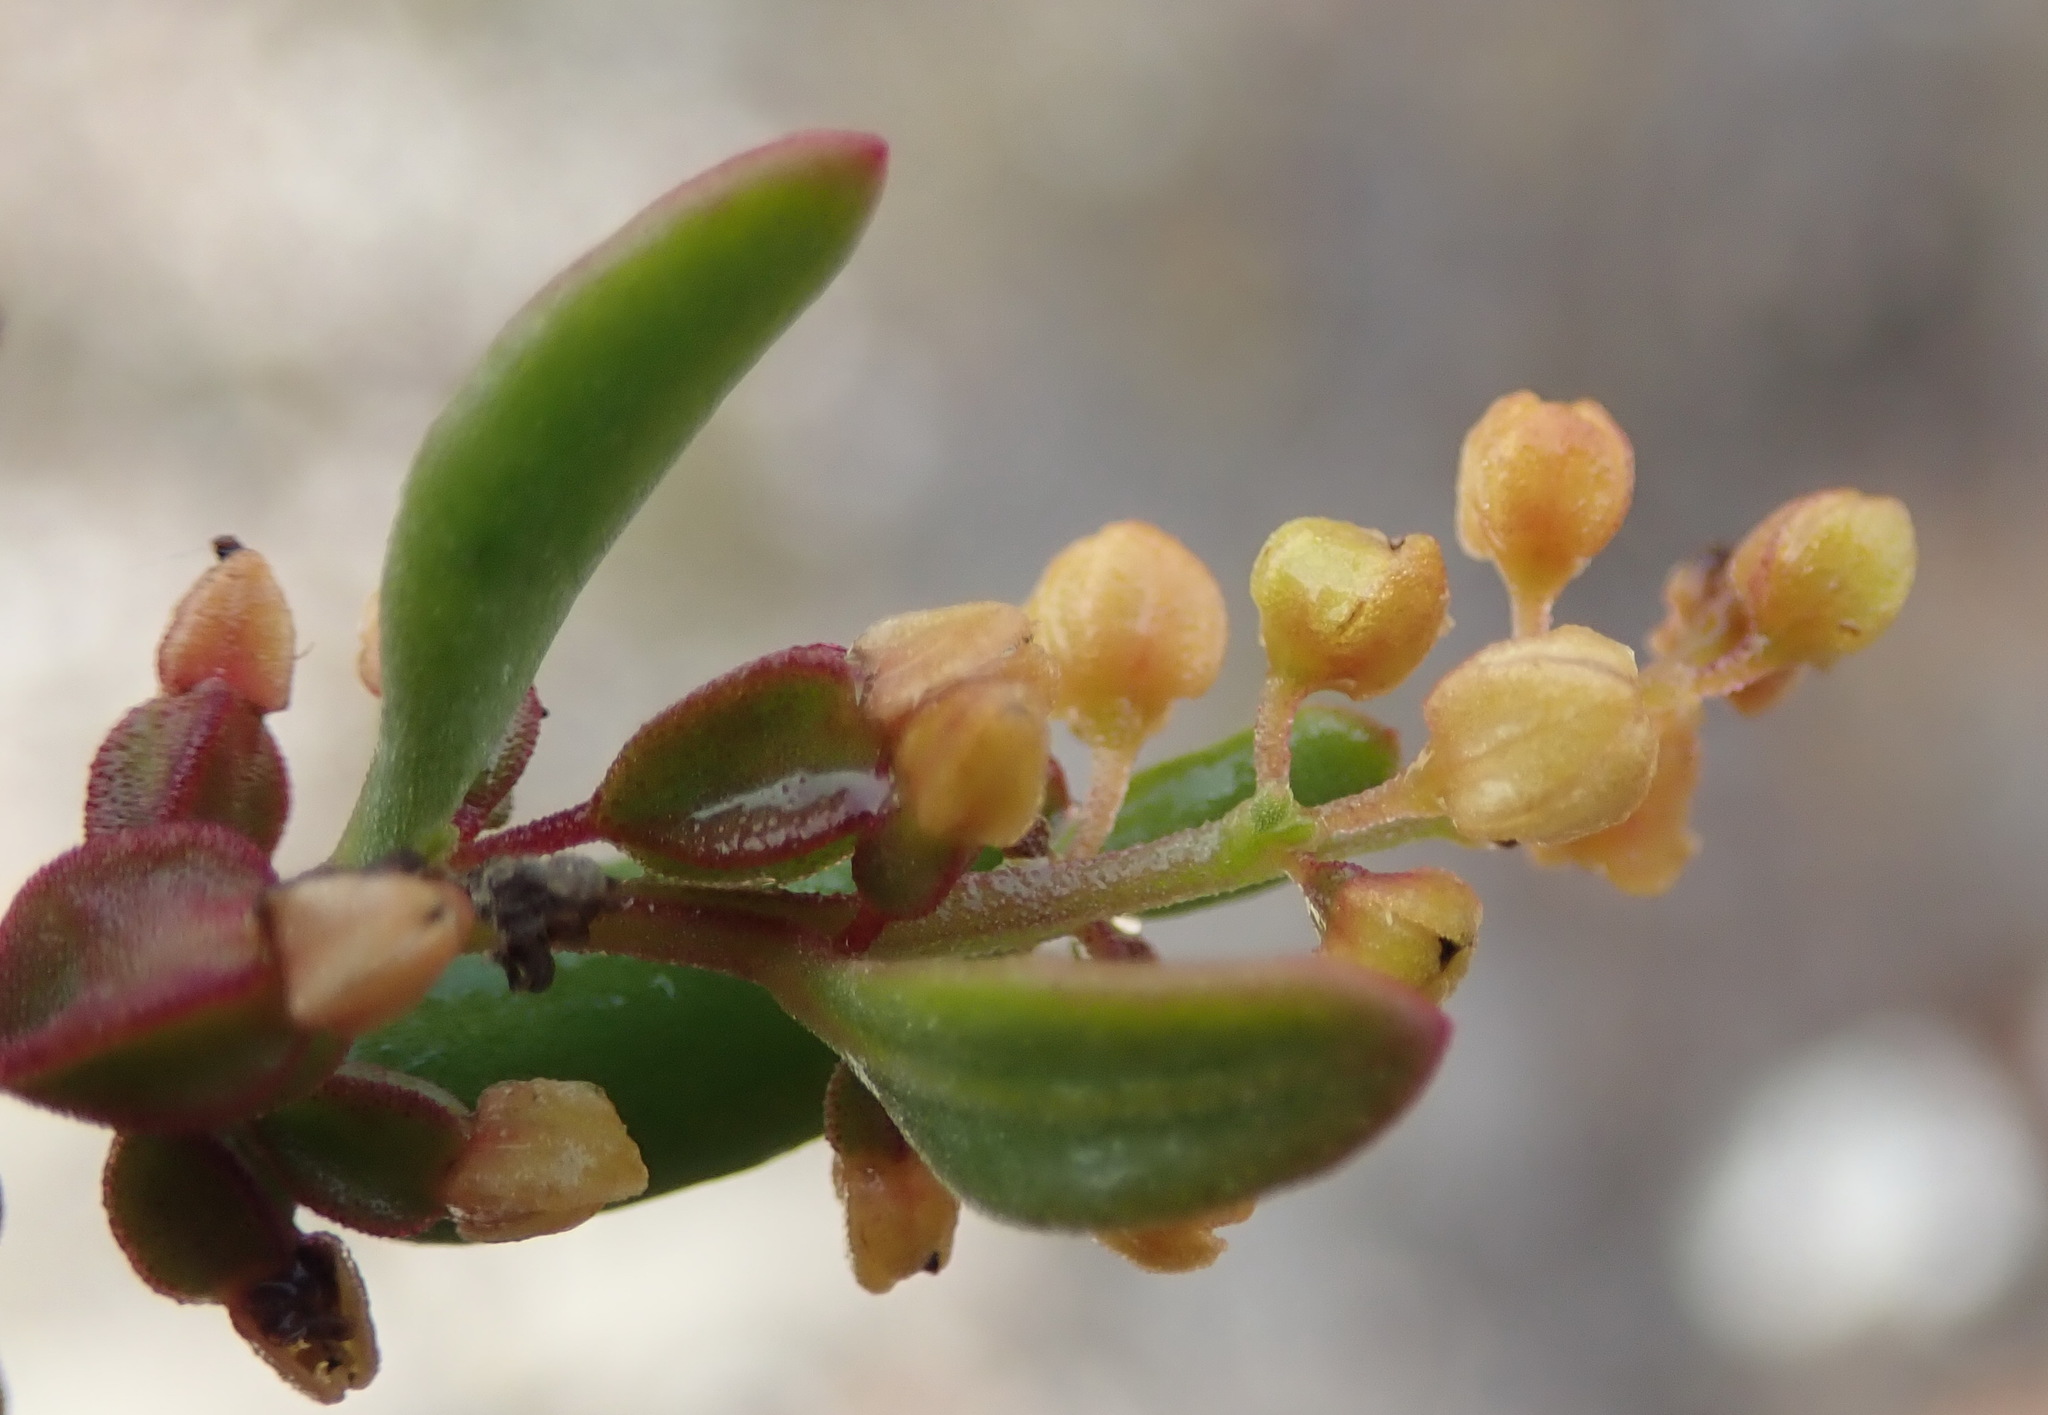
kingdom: Plantae
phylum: Tracheophyta
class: Magnoliopsida
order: Caryophyllales
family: Aizoaceae
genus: Tetragonia
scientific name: Tetragonia verrucosa
